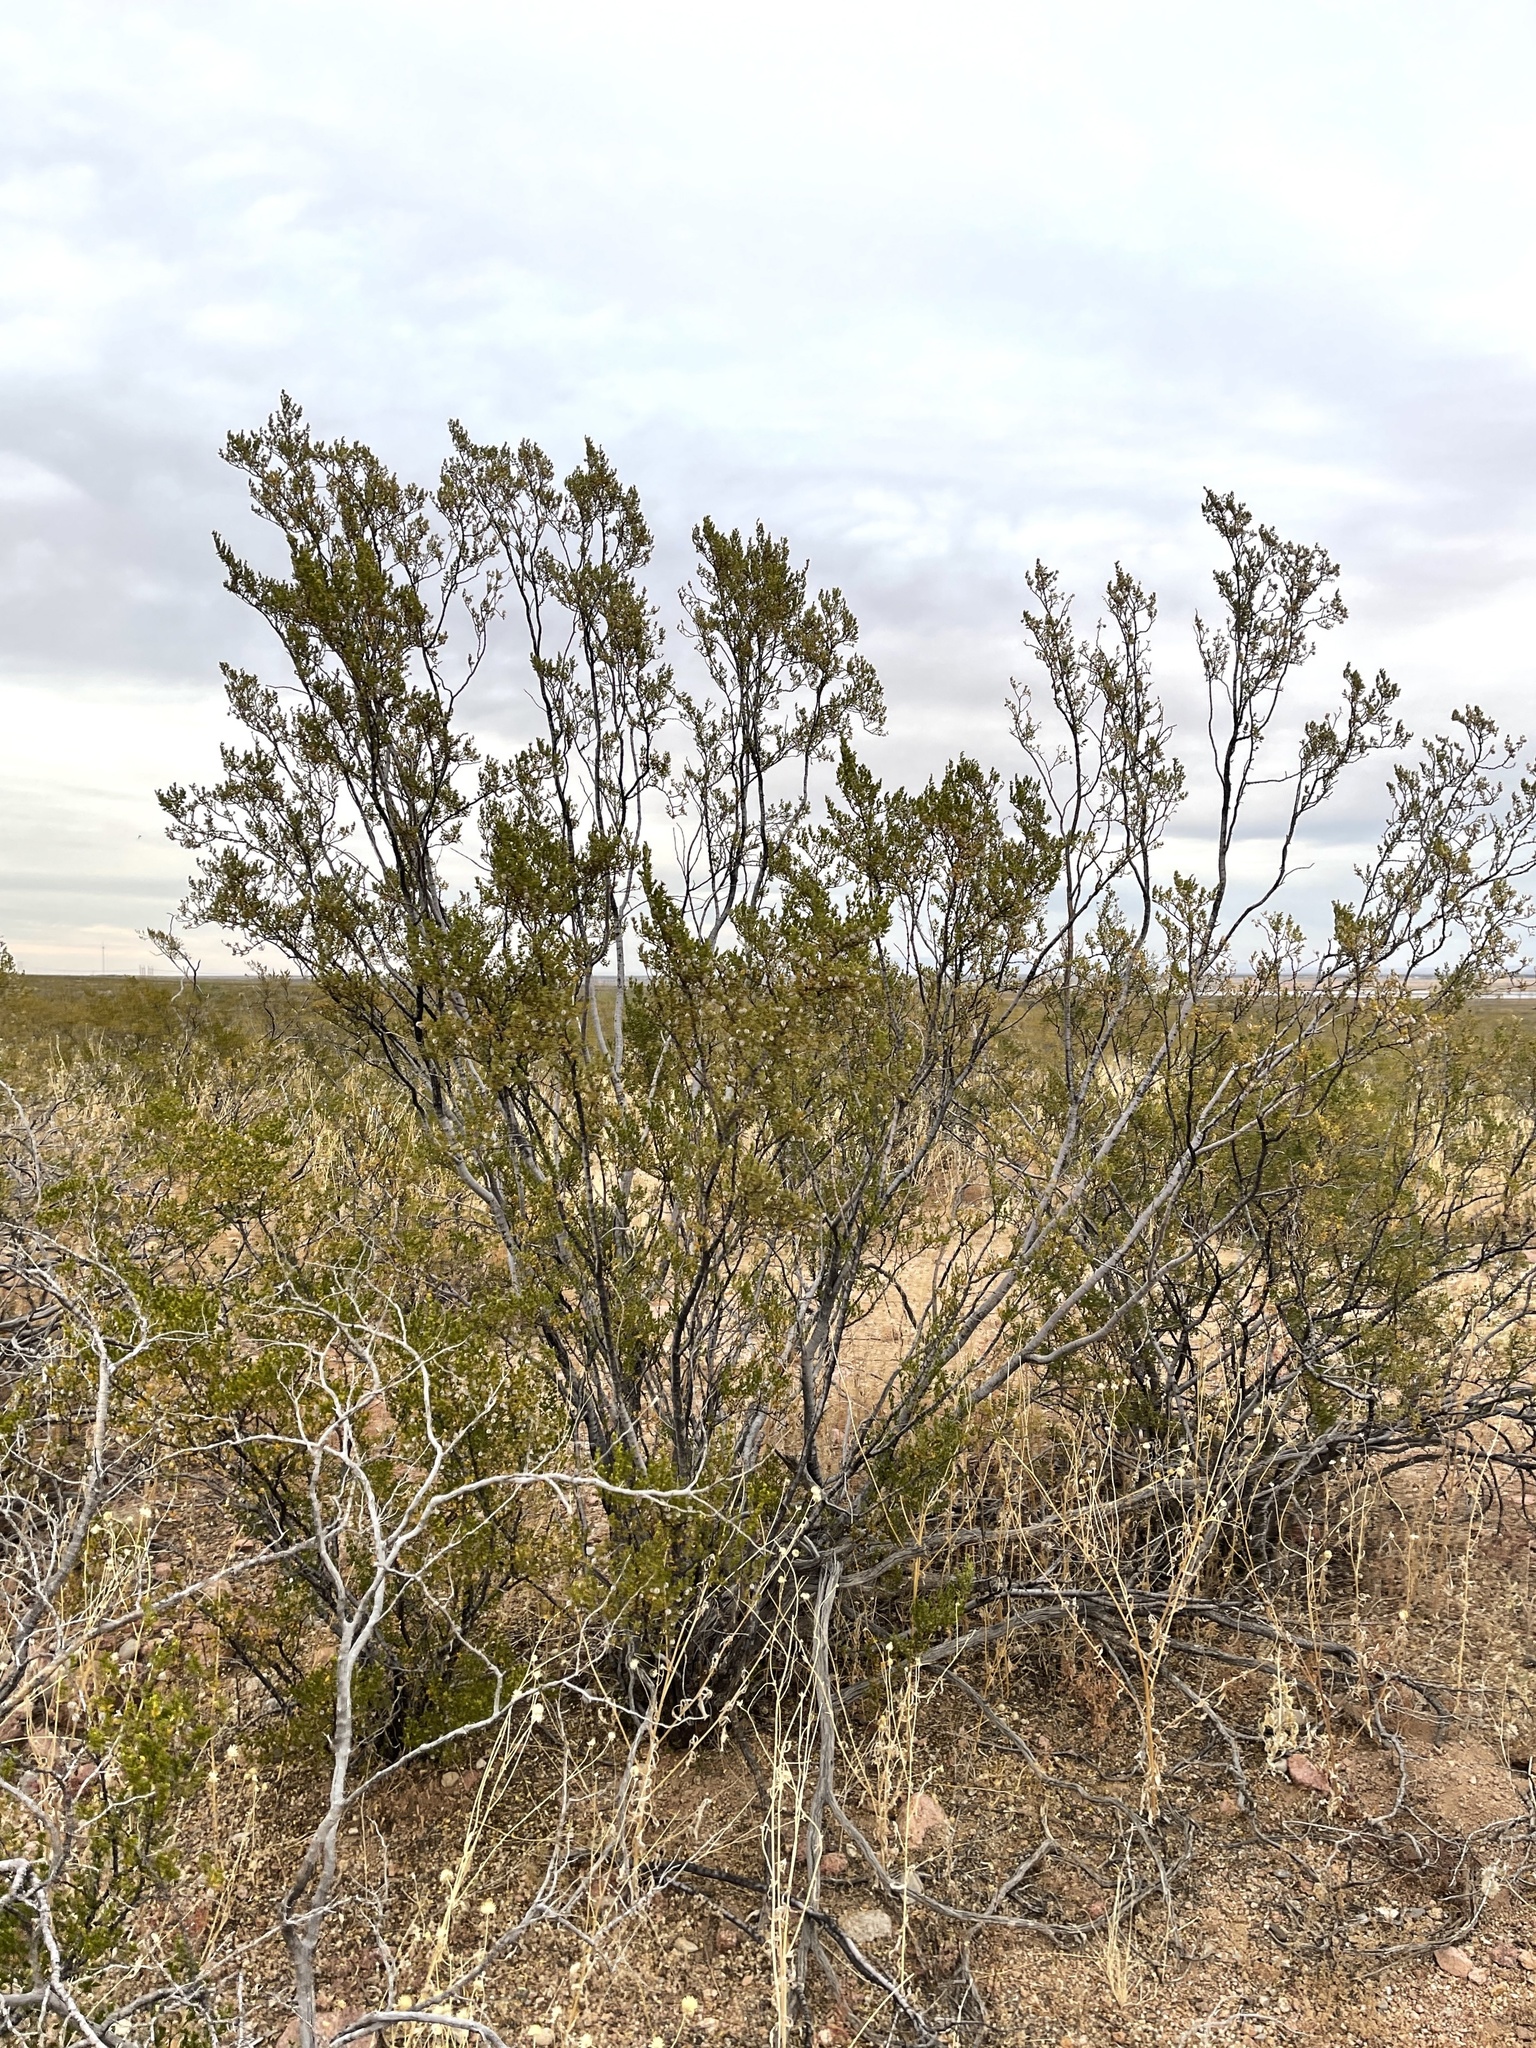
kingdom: Plantae
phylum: Tracheophyta
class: Magnoliopsida
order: Zygophyllales
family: Zygophyllaceae
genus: Larrea
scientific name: Larrea tridentata
